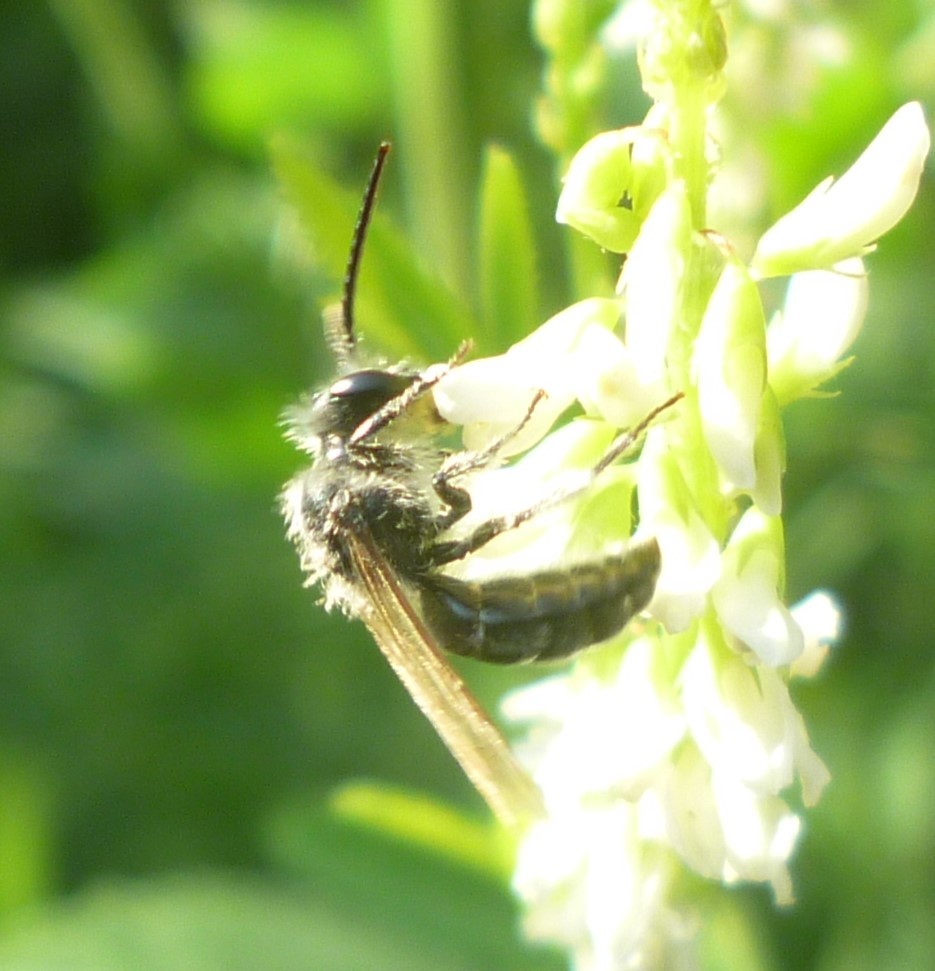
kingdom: Animalia
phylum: Arthropoda
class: Insecta
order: Hymenoptera
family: Andrenidae
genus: Andrena
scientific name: Andrena wilkella
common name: Wilke's mining bee
